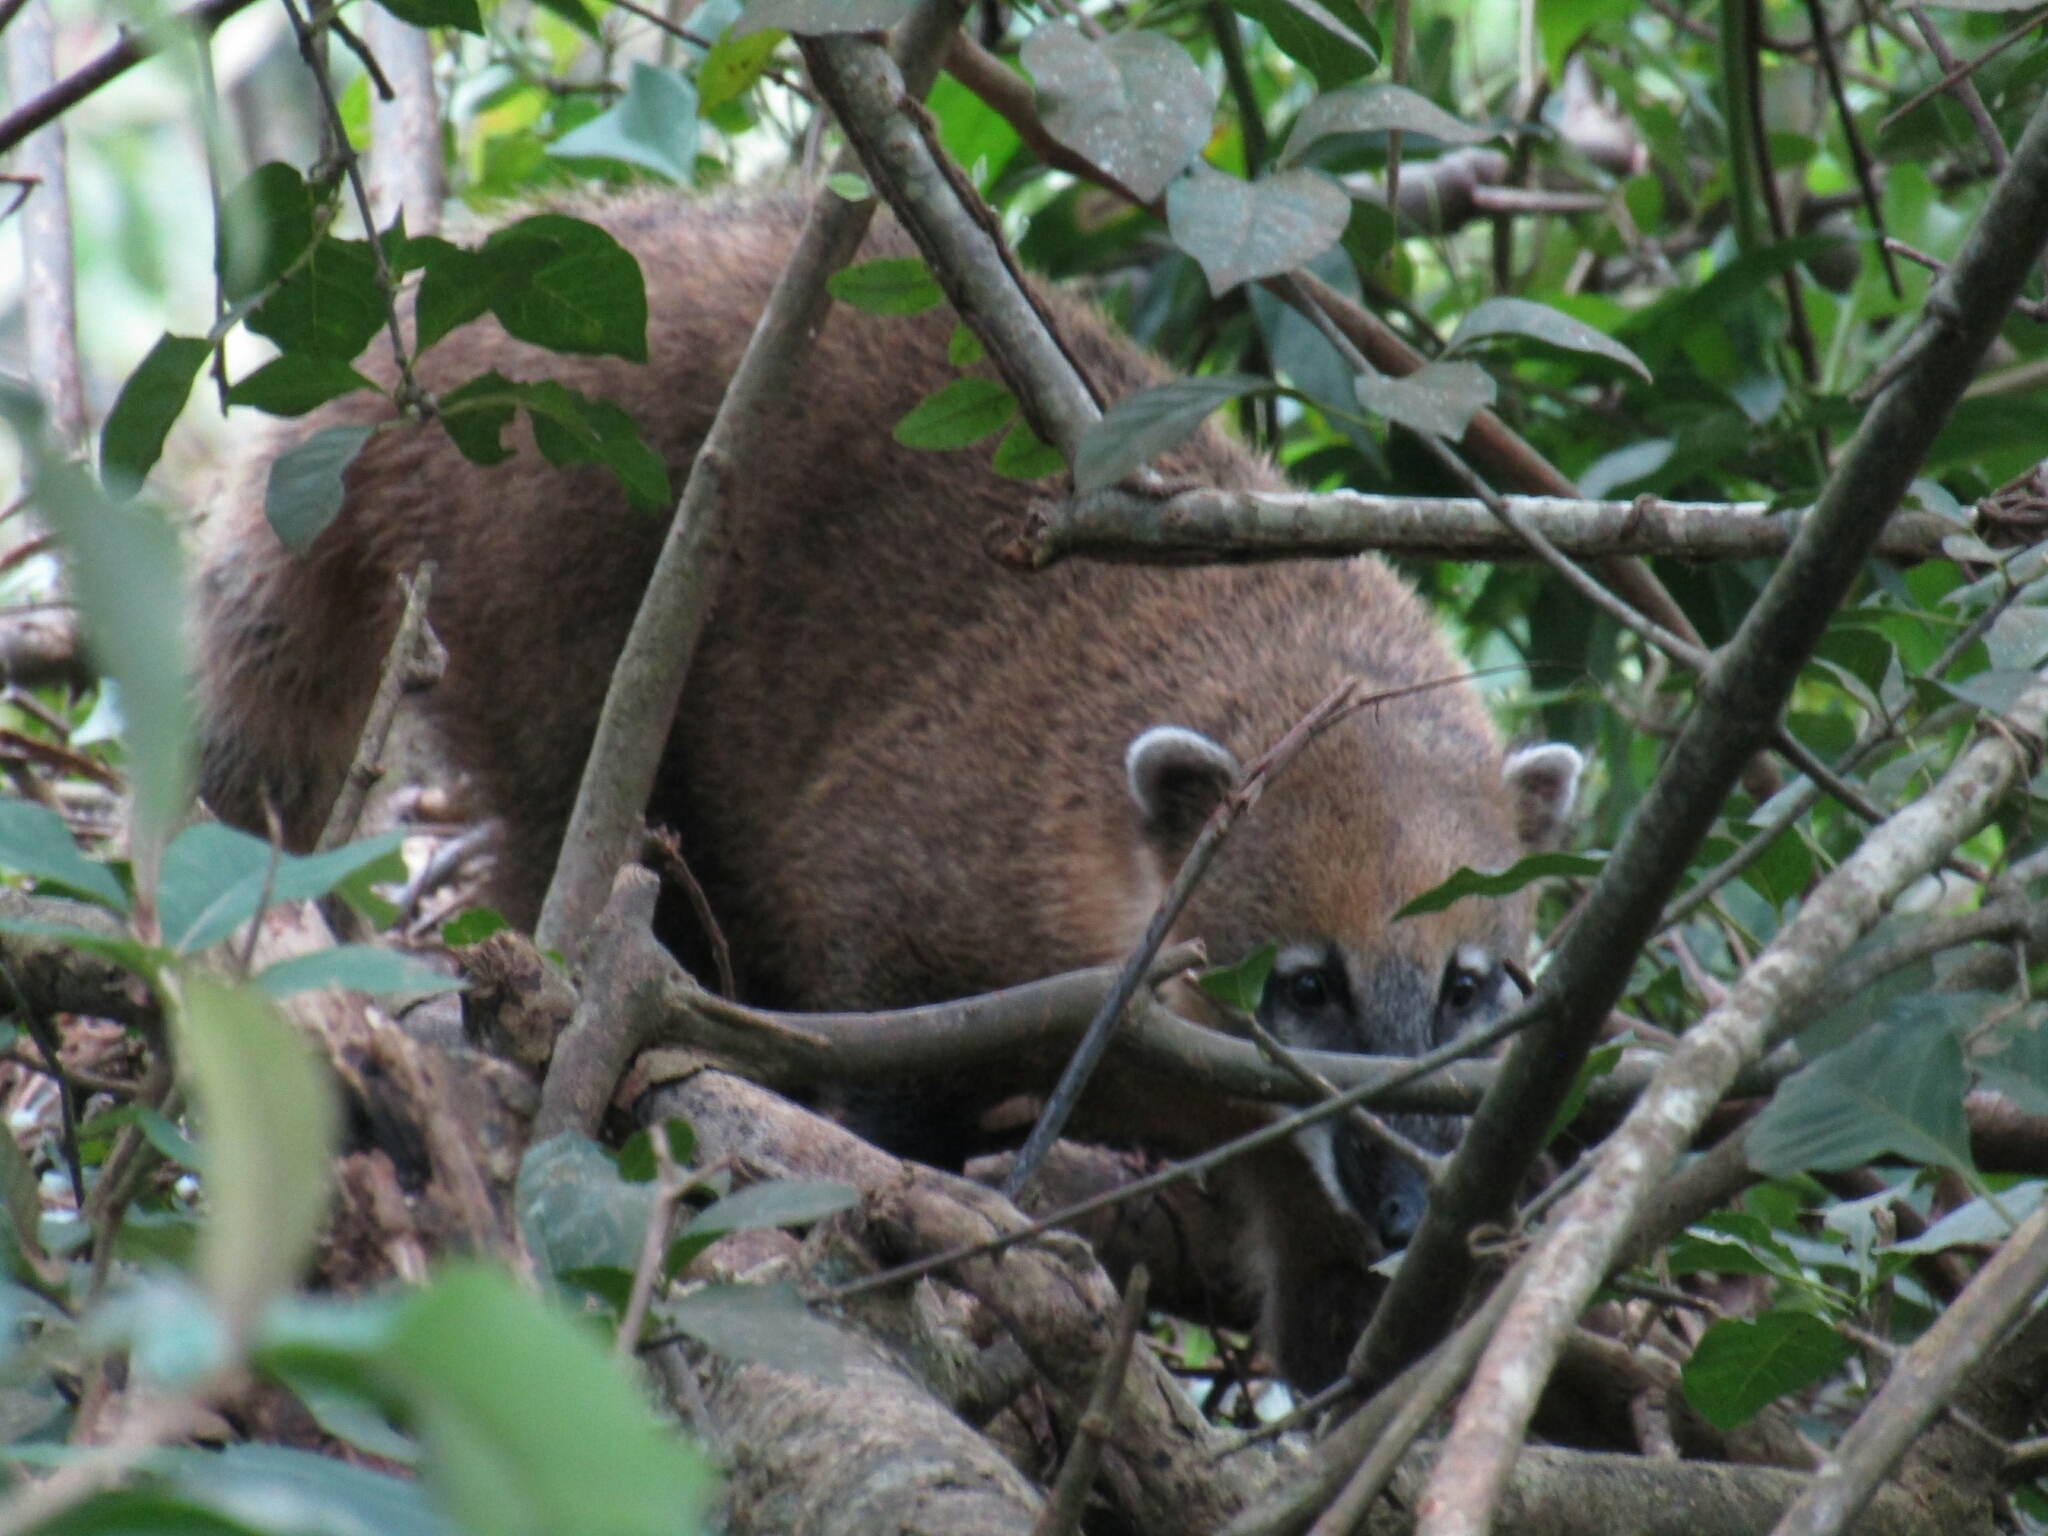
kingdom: Animalia
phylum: Chordata
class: Mammalia
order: Carnivora
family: Procyonidae
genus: Nasua
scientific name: Nasua nasua
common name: South american coati
